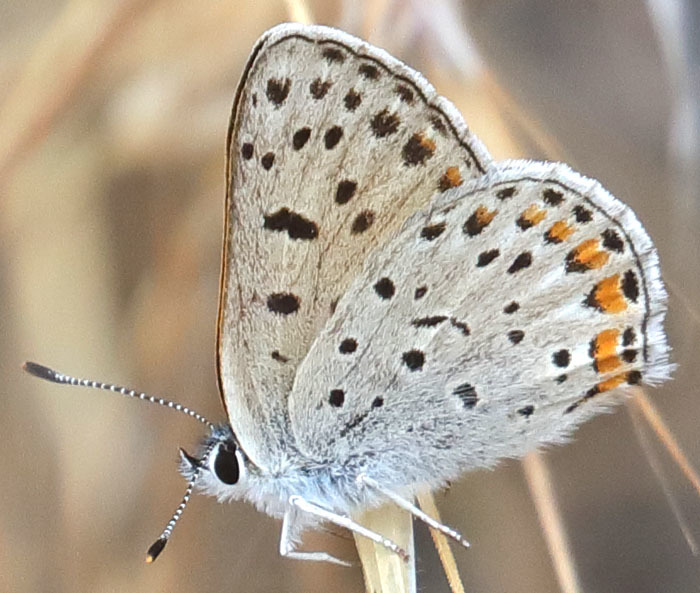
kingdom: Animalia
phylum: Arthropoda
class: Insecta
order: Lepidoptera
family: Lycaenidae
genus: Tharsalea
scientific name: Tharsalea gorgon
